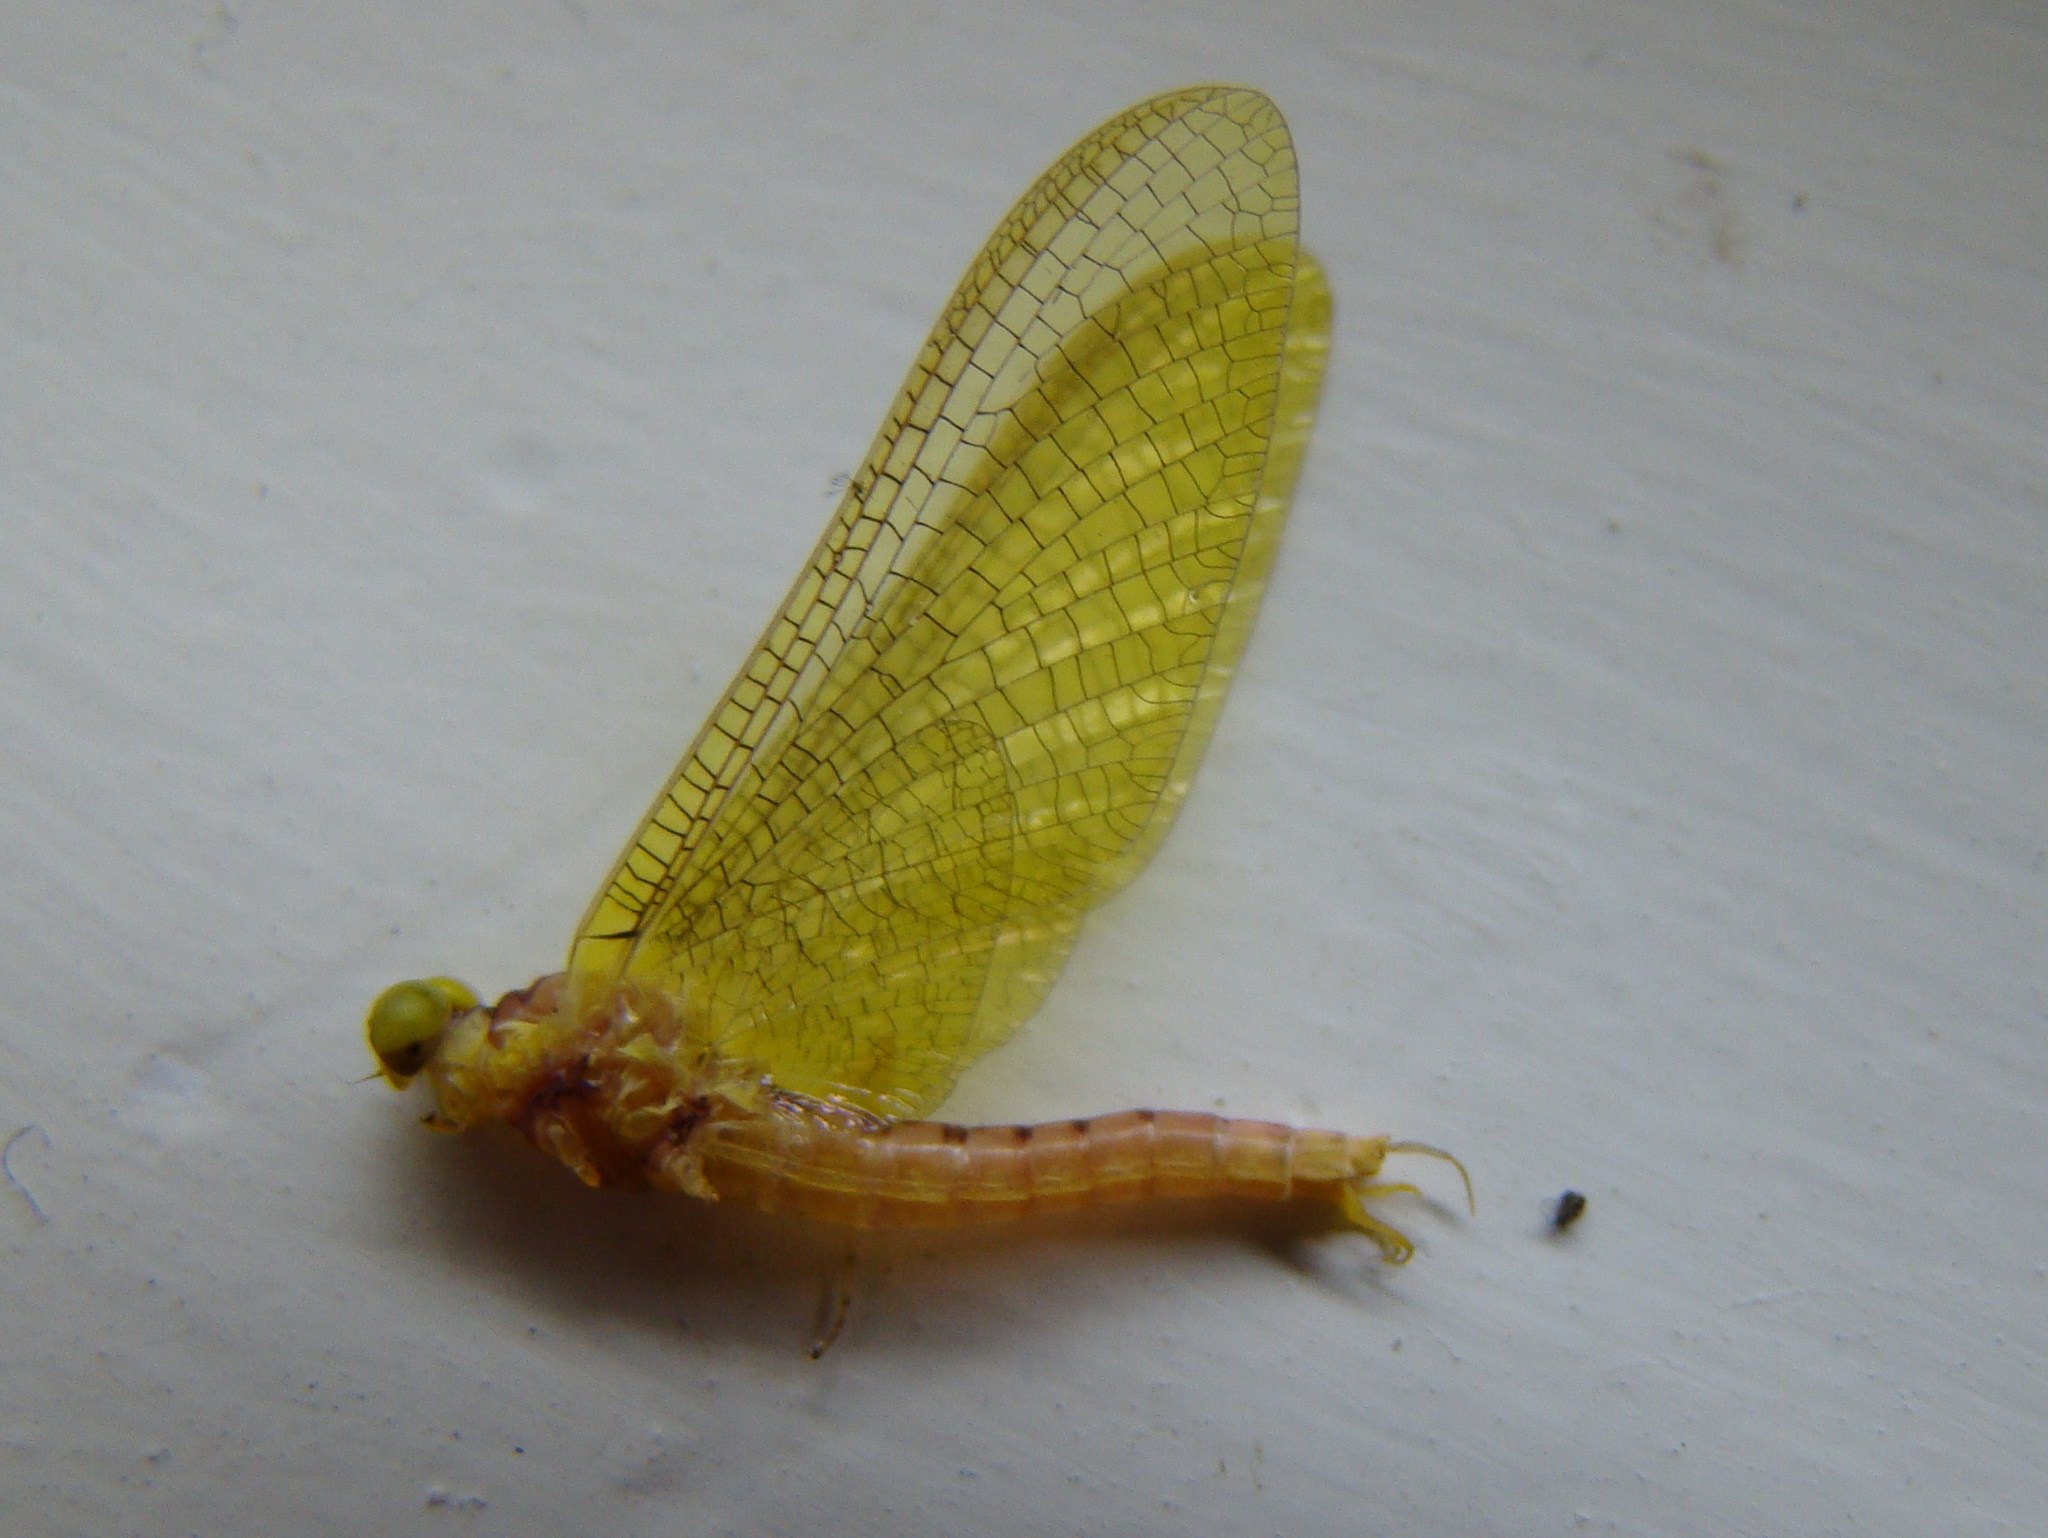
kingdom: Animalia
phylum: Arthropoda
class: Insecta
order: Ephemeroptera
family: Ameletopsidae
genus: Ameletopsis
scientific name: Ameletopsis perscitus
